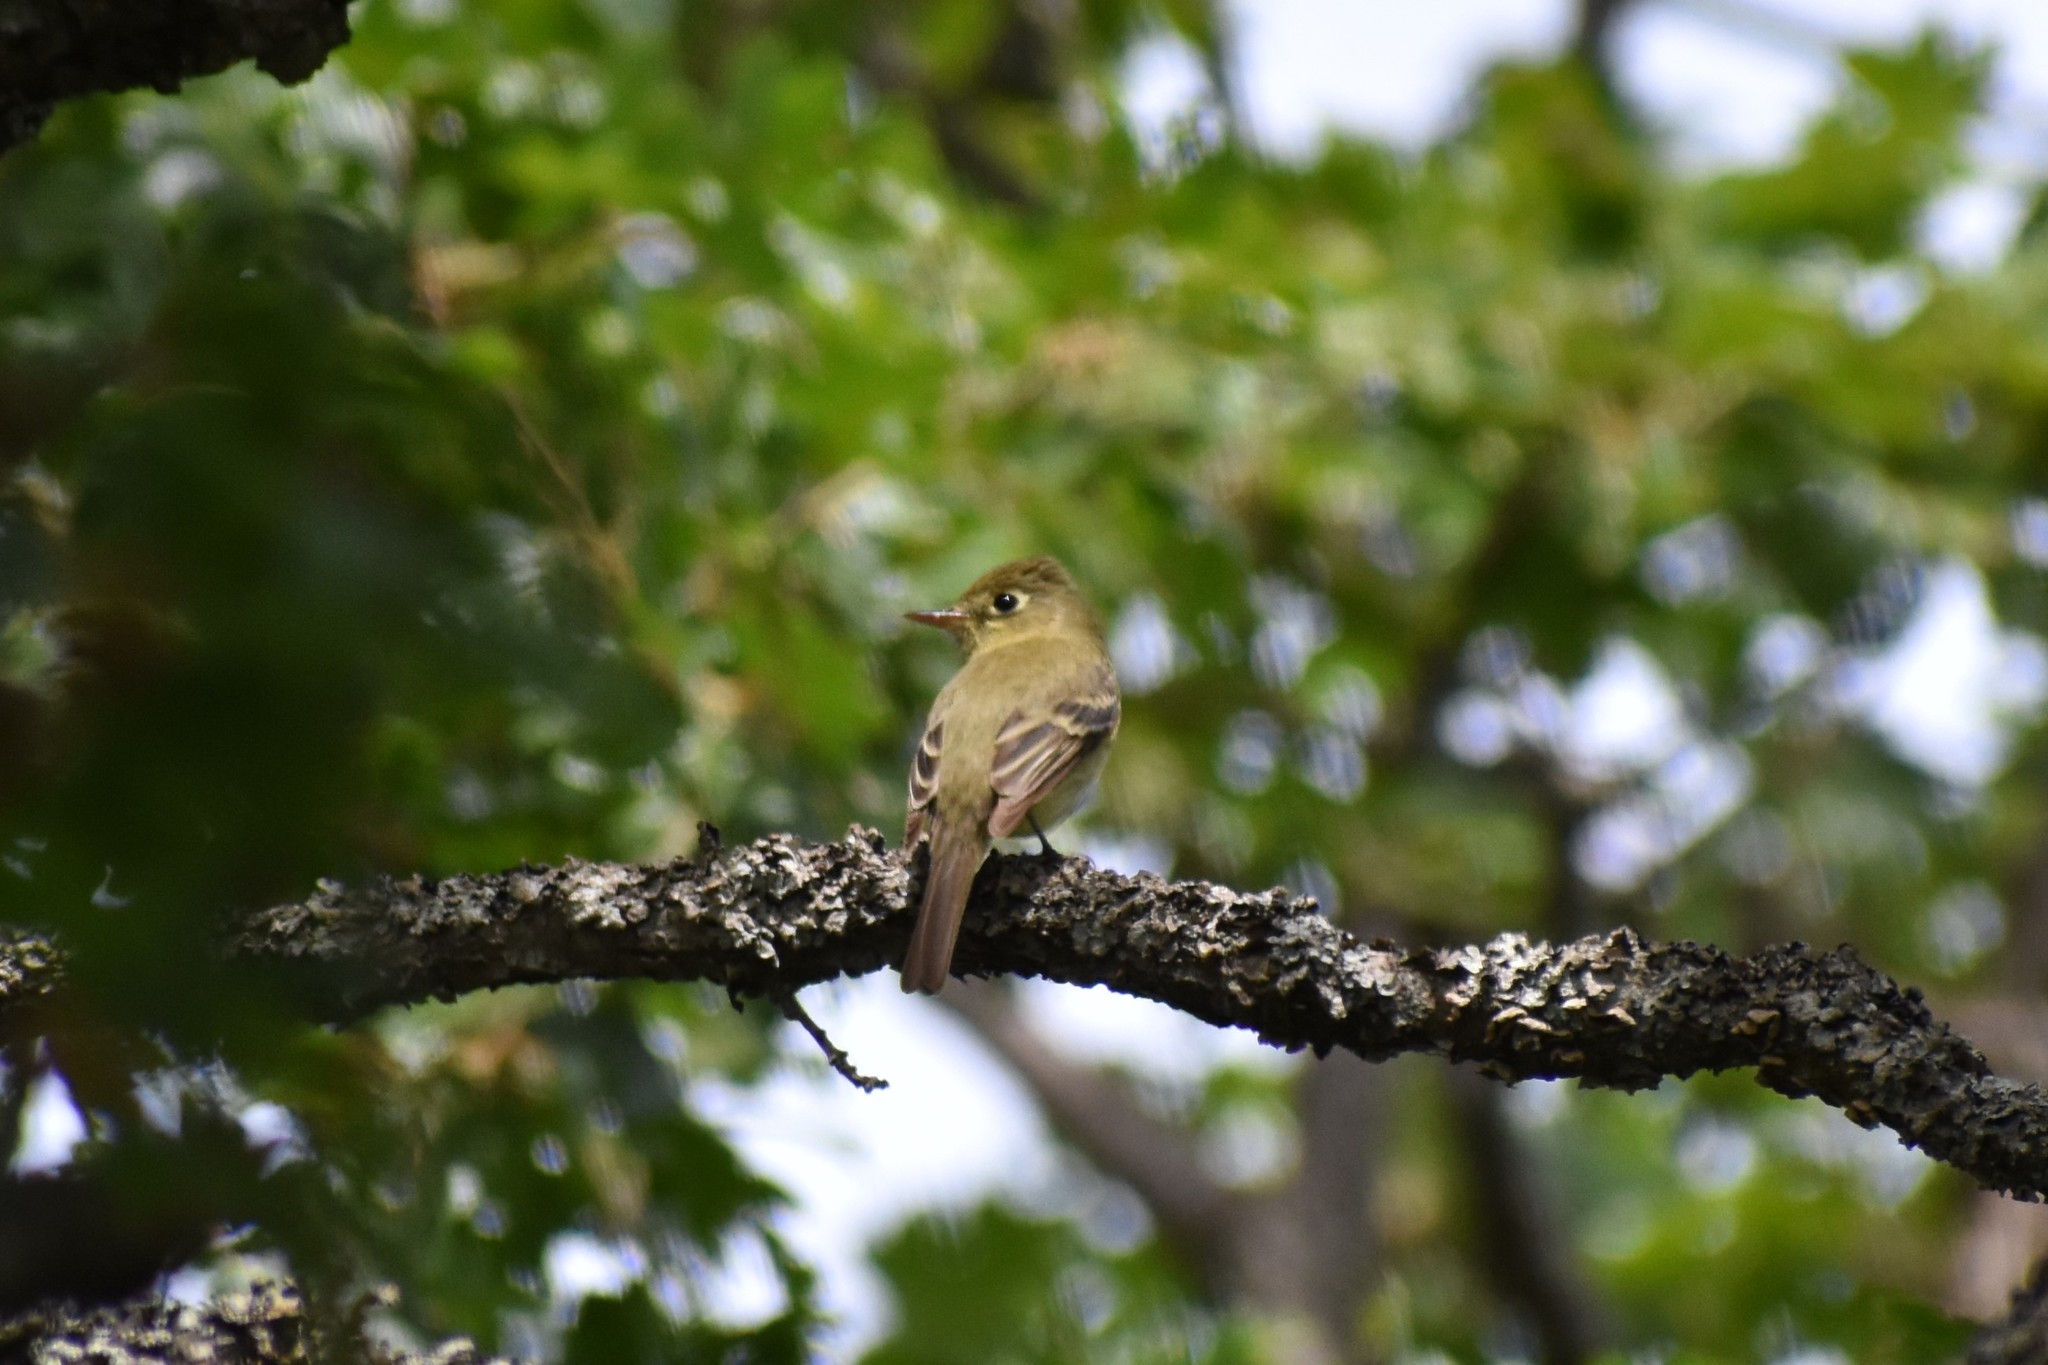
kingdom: Animalia
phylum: Chordata
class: Aves
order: Passeriformes
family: Tyrannidae
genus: Empidonax
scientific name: Empidonax difficilis
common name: Pacific-slope flycatcher
